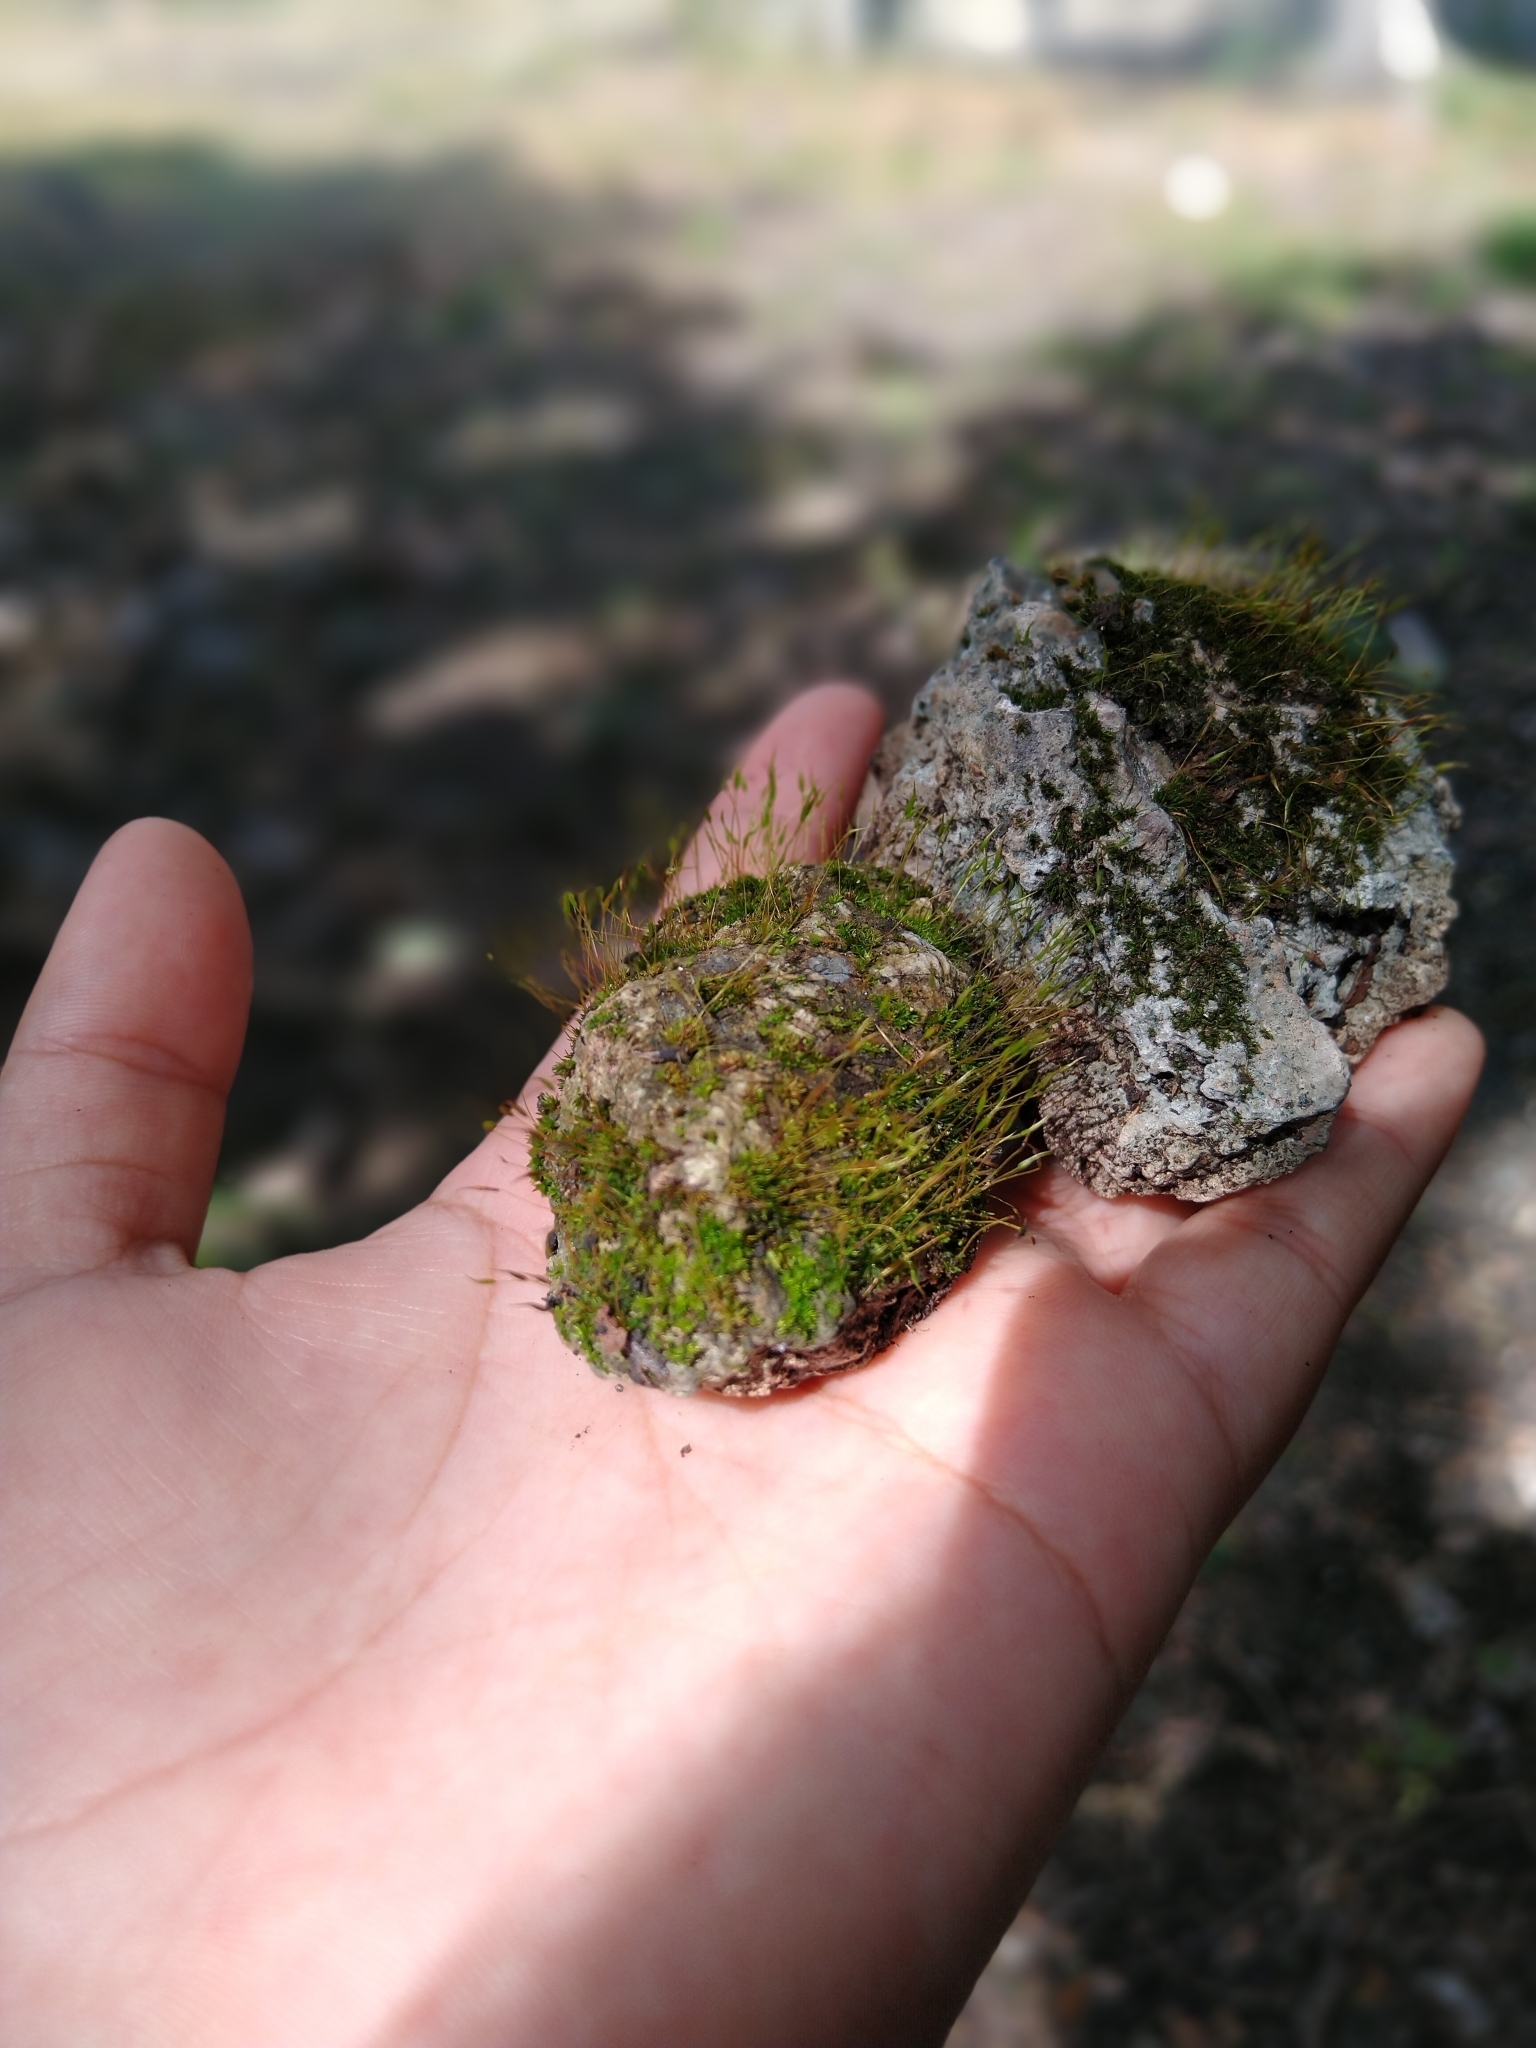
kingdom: Plantae
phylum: Bryophyta
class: Bryopsida
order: Pottiales
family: Pottiaceae
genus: Tortula
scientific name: Tortula muralis
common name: Wall screw-moss
